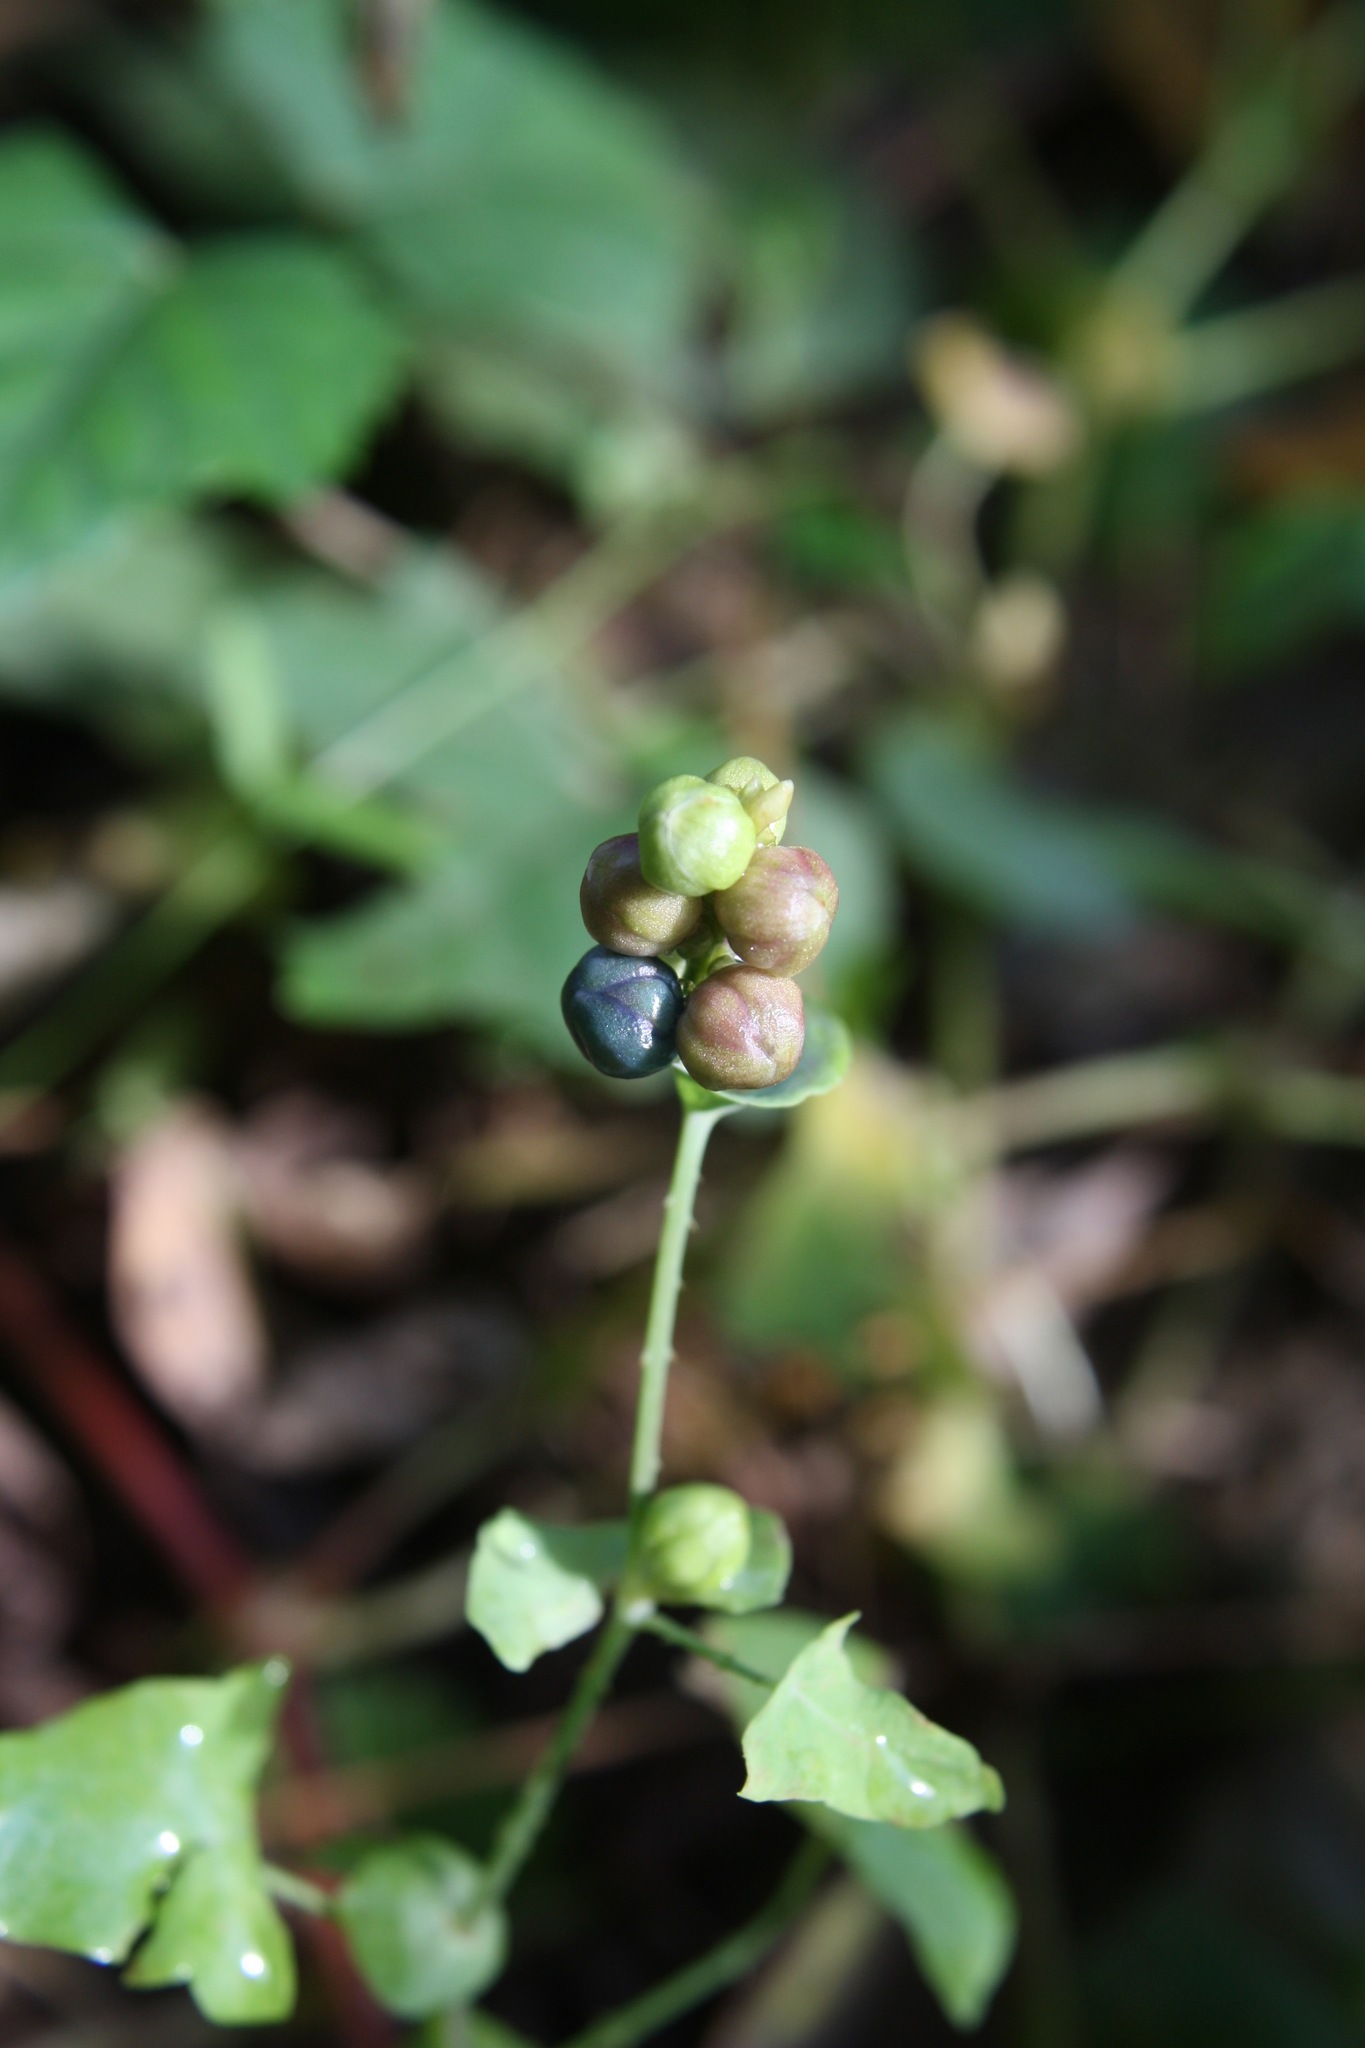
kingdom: Plantae
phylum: Tracheophyta
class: Magnoliopsida
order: Caryophyllales
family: Polygonaceae
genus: Persicaria
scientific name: Persicaria perfoliata
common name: Asiatic tearthumb
